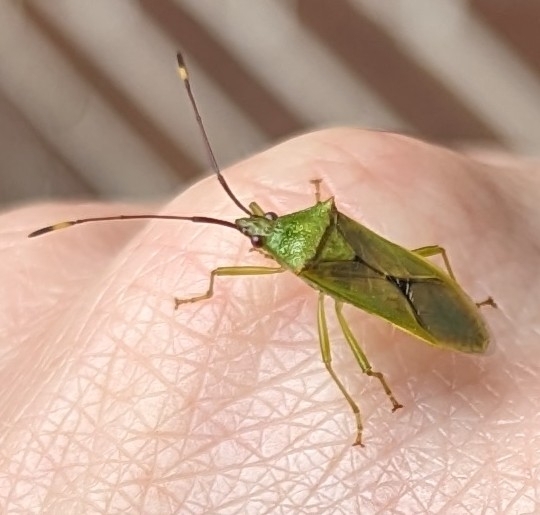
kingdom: Animalia
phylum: Arthropoda
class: Insecta
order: Hemiptera
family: Coreidae
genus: Amblypelta
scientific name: Amblypelta nitida
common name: Fruitspotting bug
